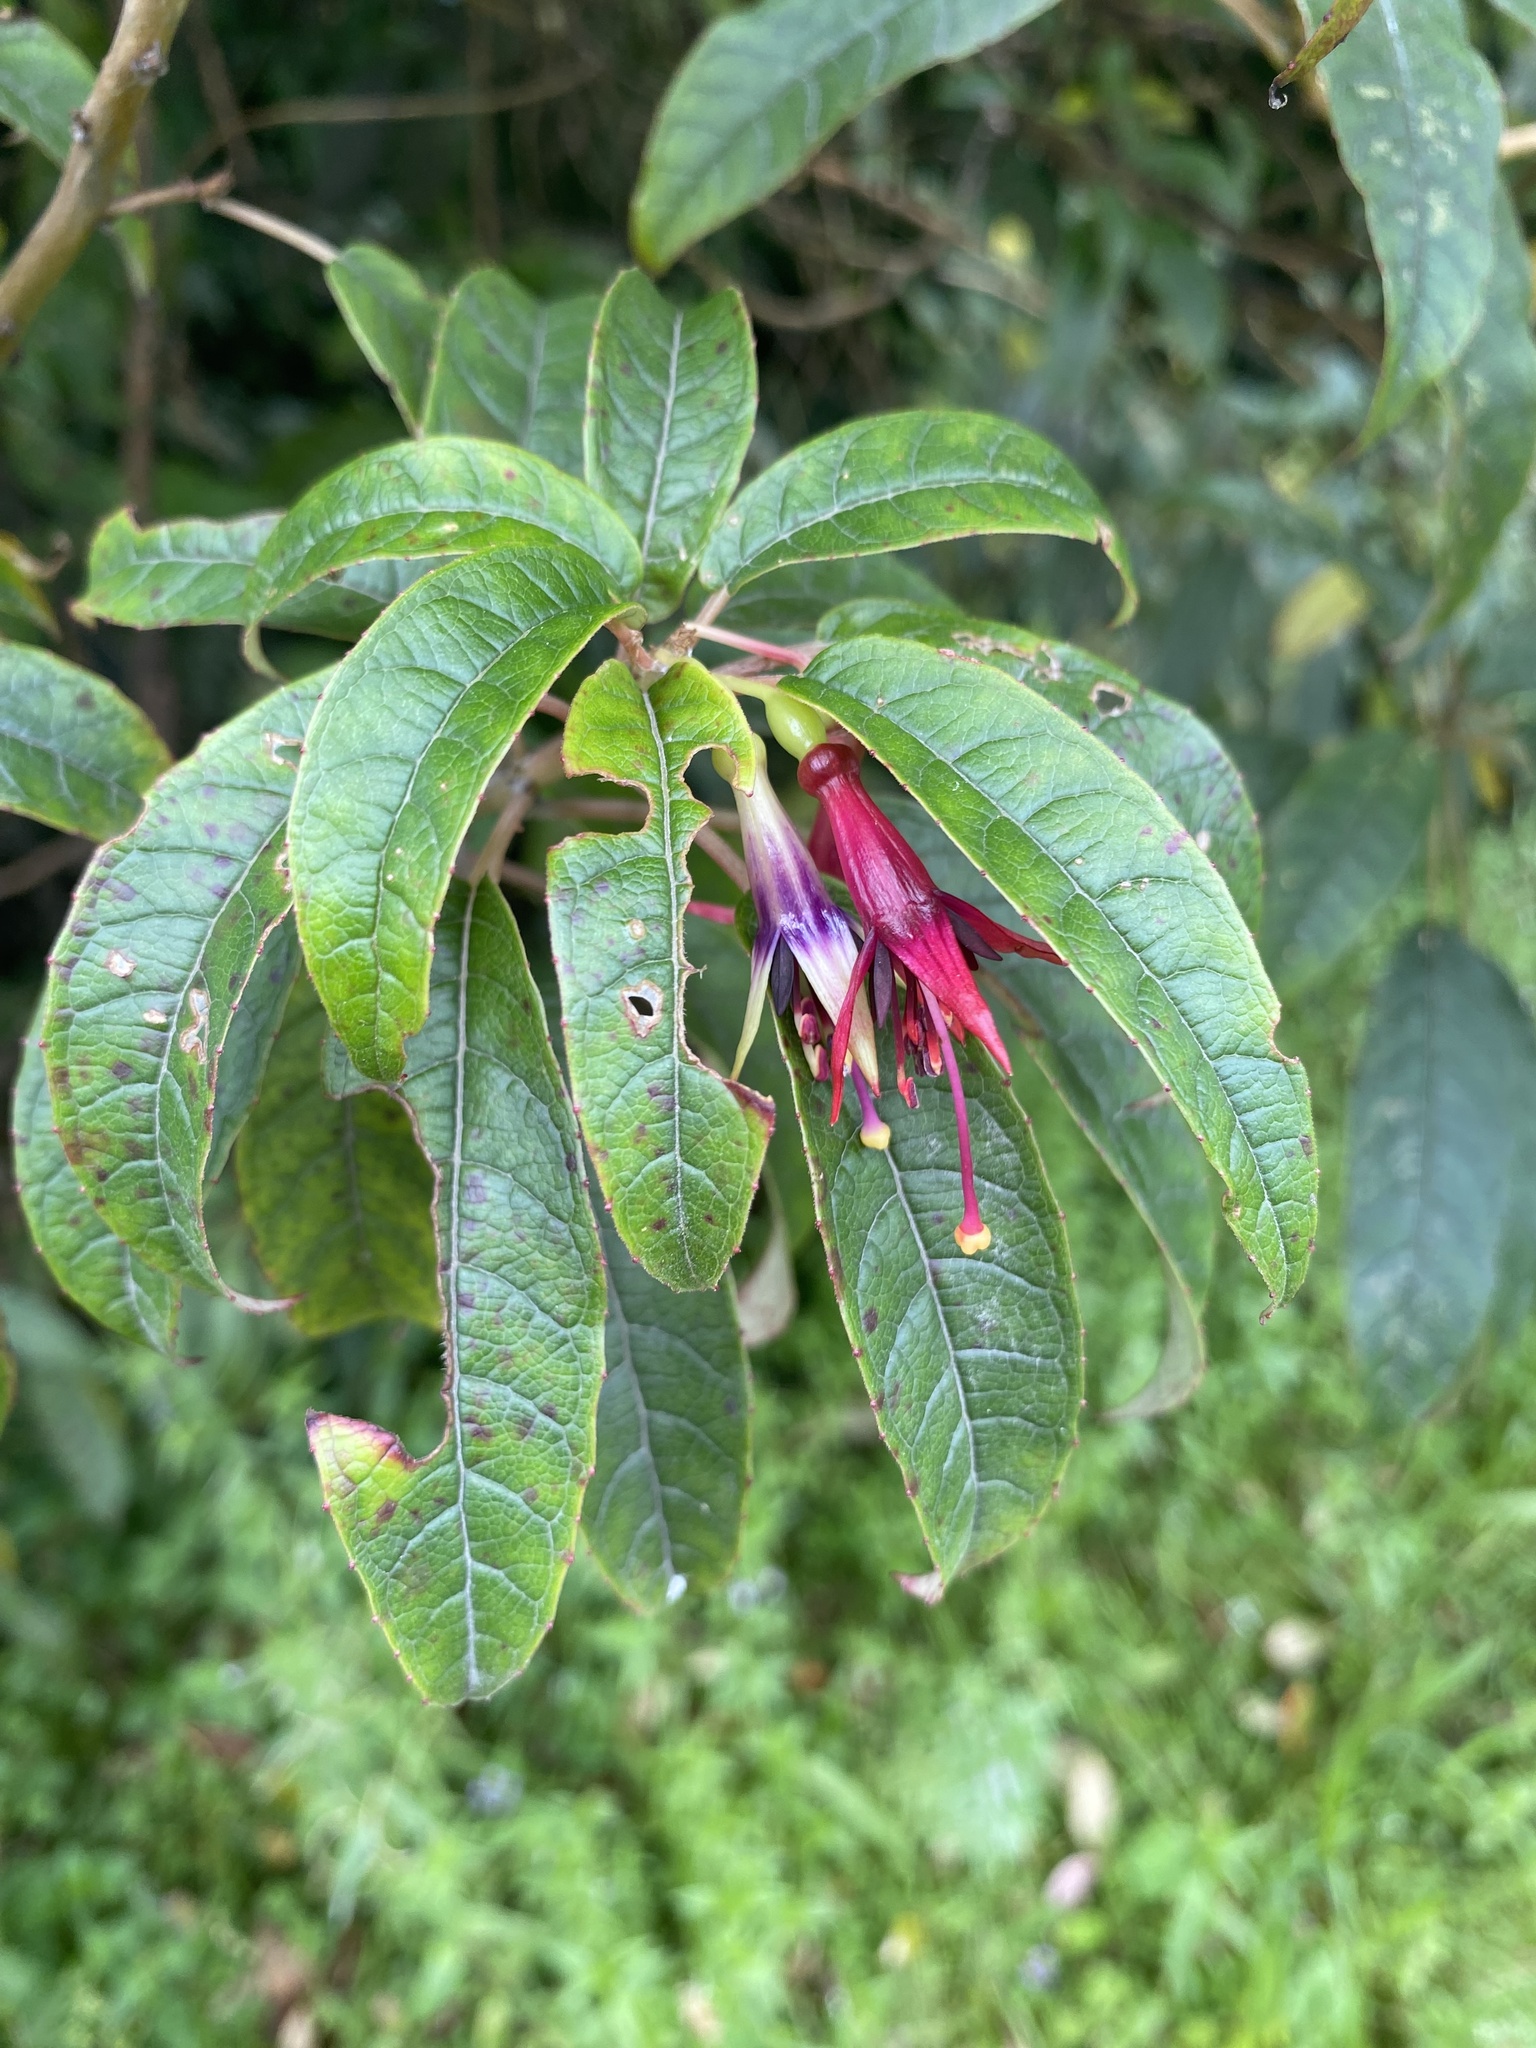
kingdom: Plantae
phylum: Tracheophyta
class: Magnoliopsida
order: Myrtales
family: Onagraceae
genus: Fuchsia
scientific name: Fuchsia excorticata
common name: Tree fuchsia
